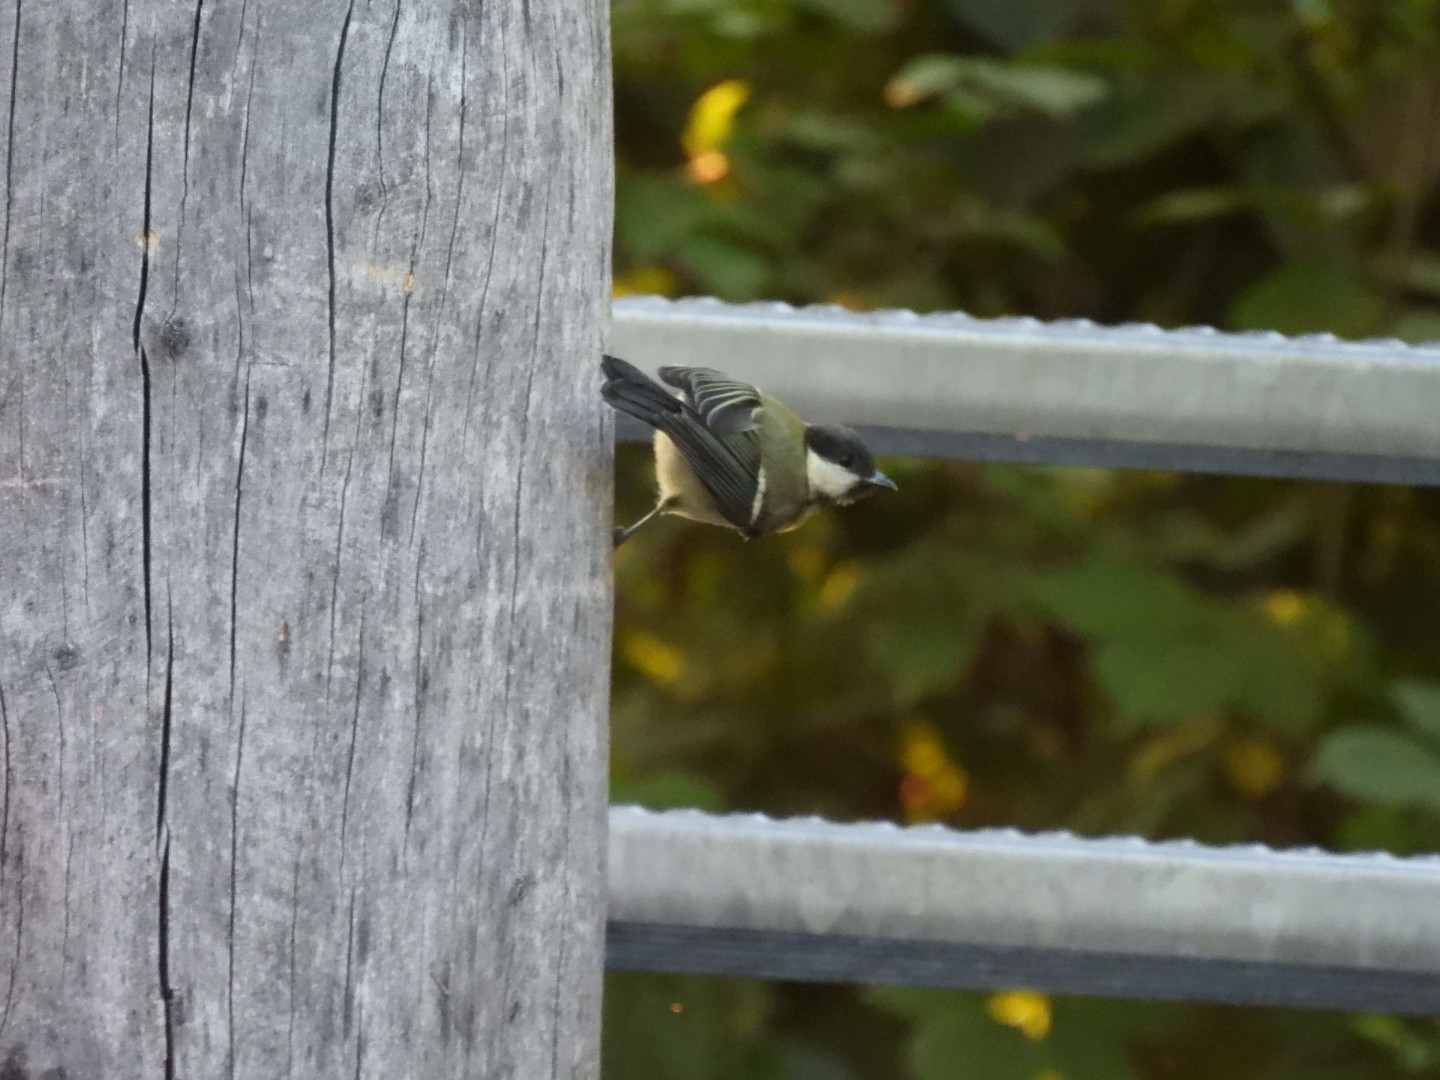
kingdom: Animalia
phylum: Chordata
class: Aves
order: Passeriformes
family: Paridae
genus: Parus
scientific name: Parus major
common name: Great tit
